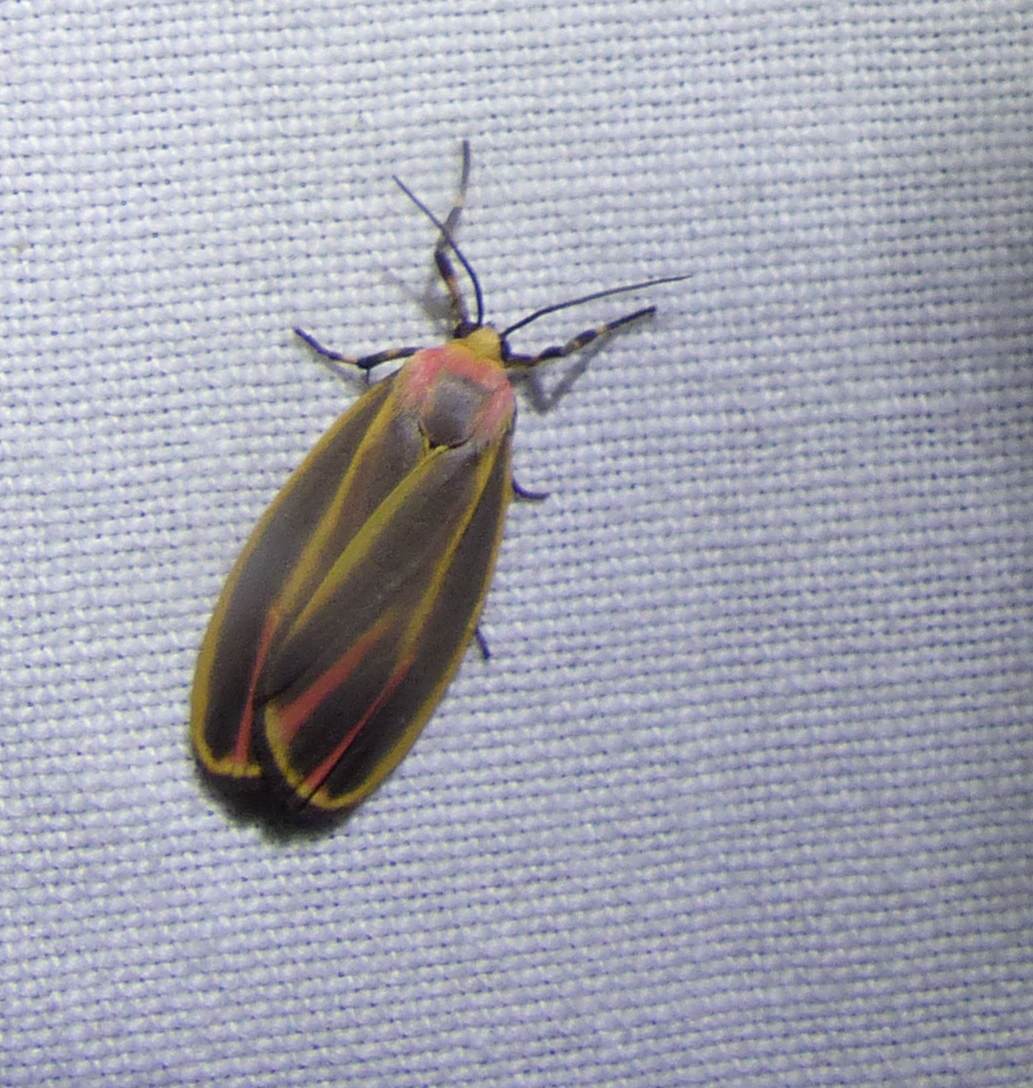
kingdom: Animalia
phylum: Arthropoda
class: Insecta
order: Lepidoptera
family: Erebidae
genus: Hypoprepia
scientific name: Hypoprepia fucosa
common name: Painted lichen moth
